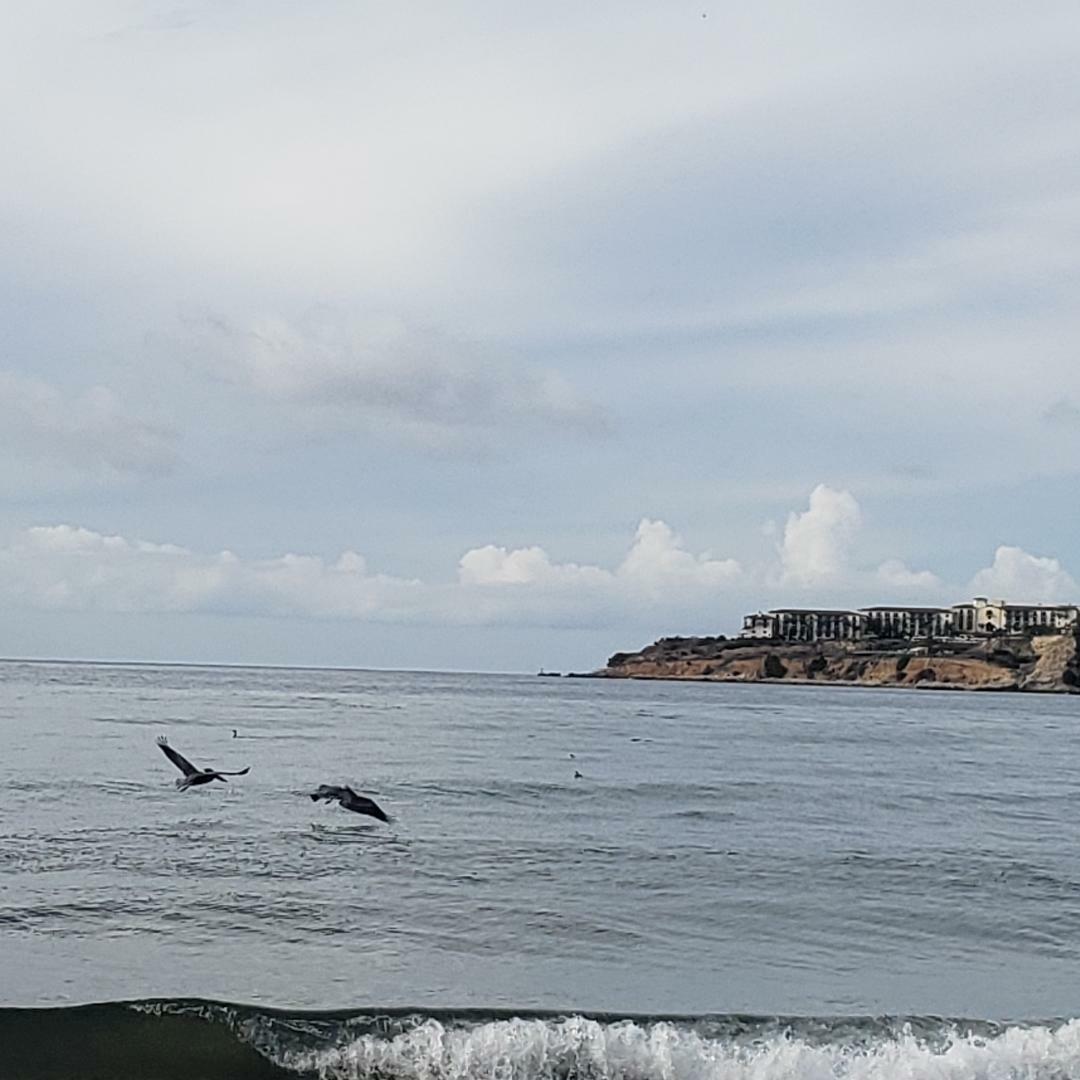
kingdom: Animalia
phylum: Chordata
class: Aves
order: Pelecaniformes
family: Pelecanidae
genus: Pelecanus
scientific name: Pelecanus occidentalis
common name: Brown pelican
